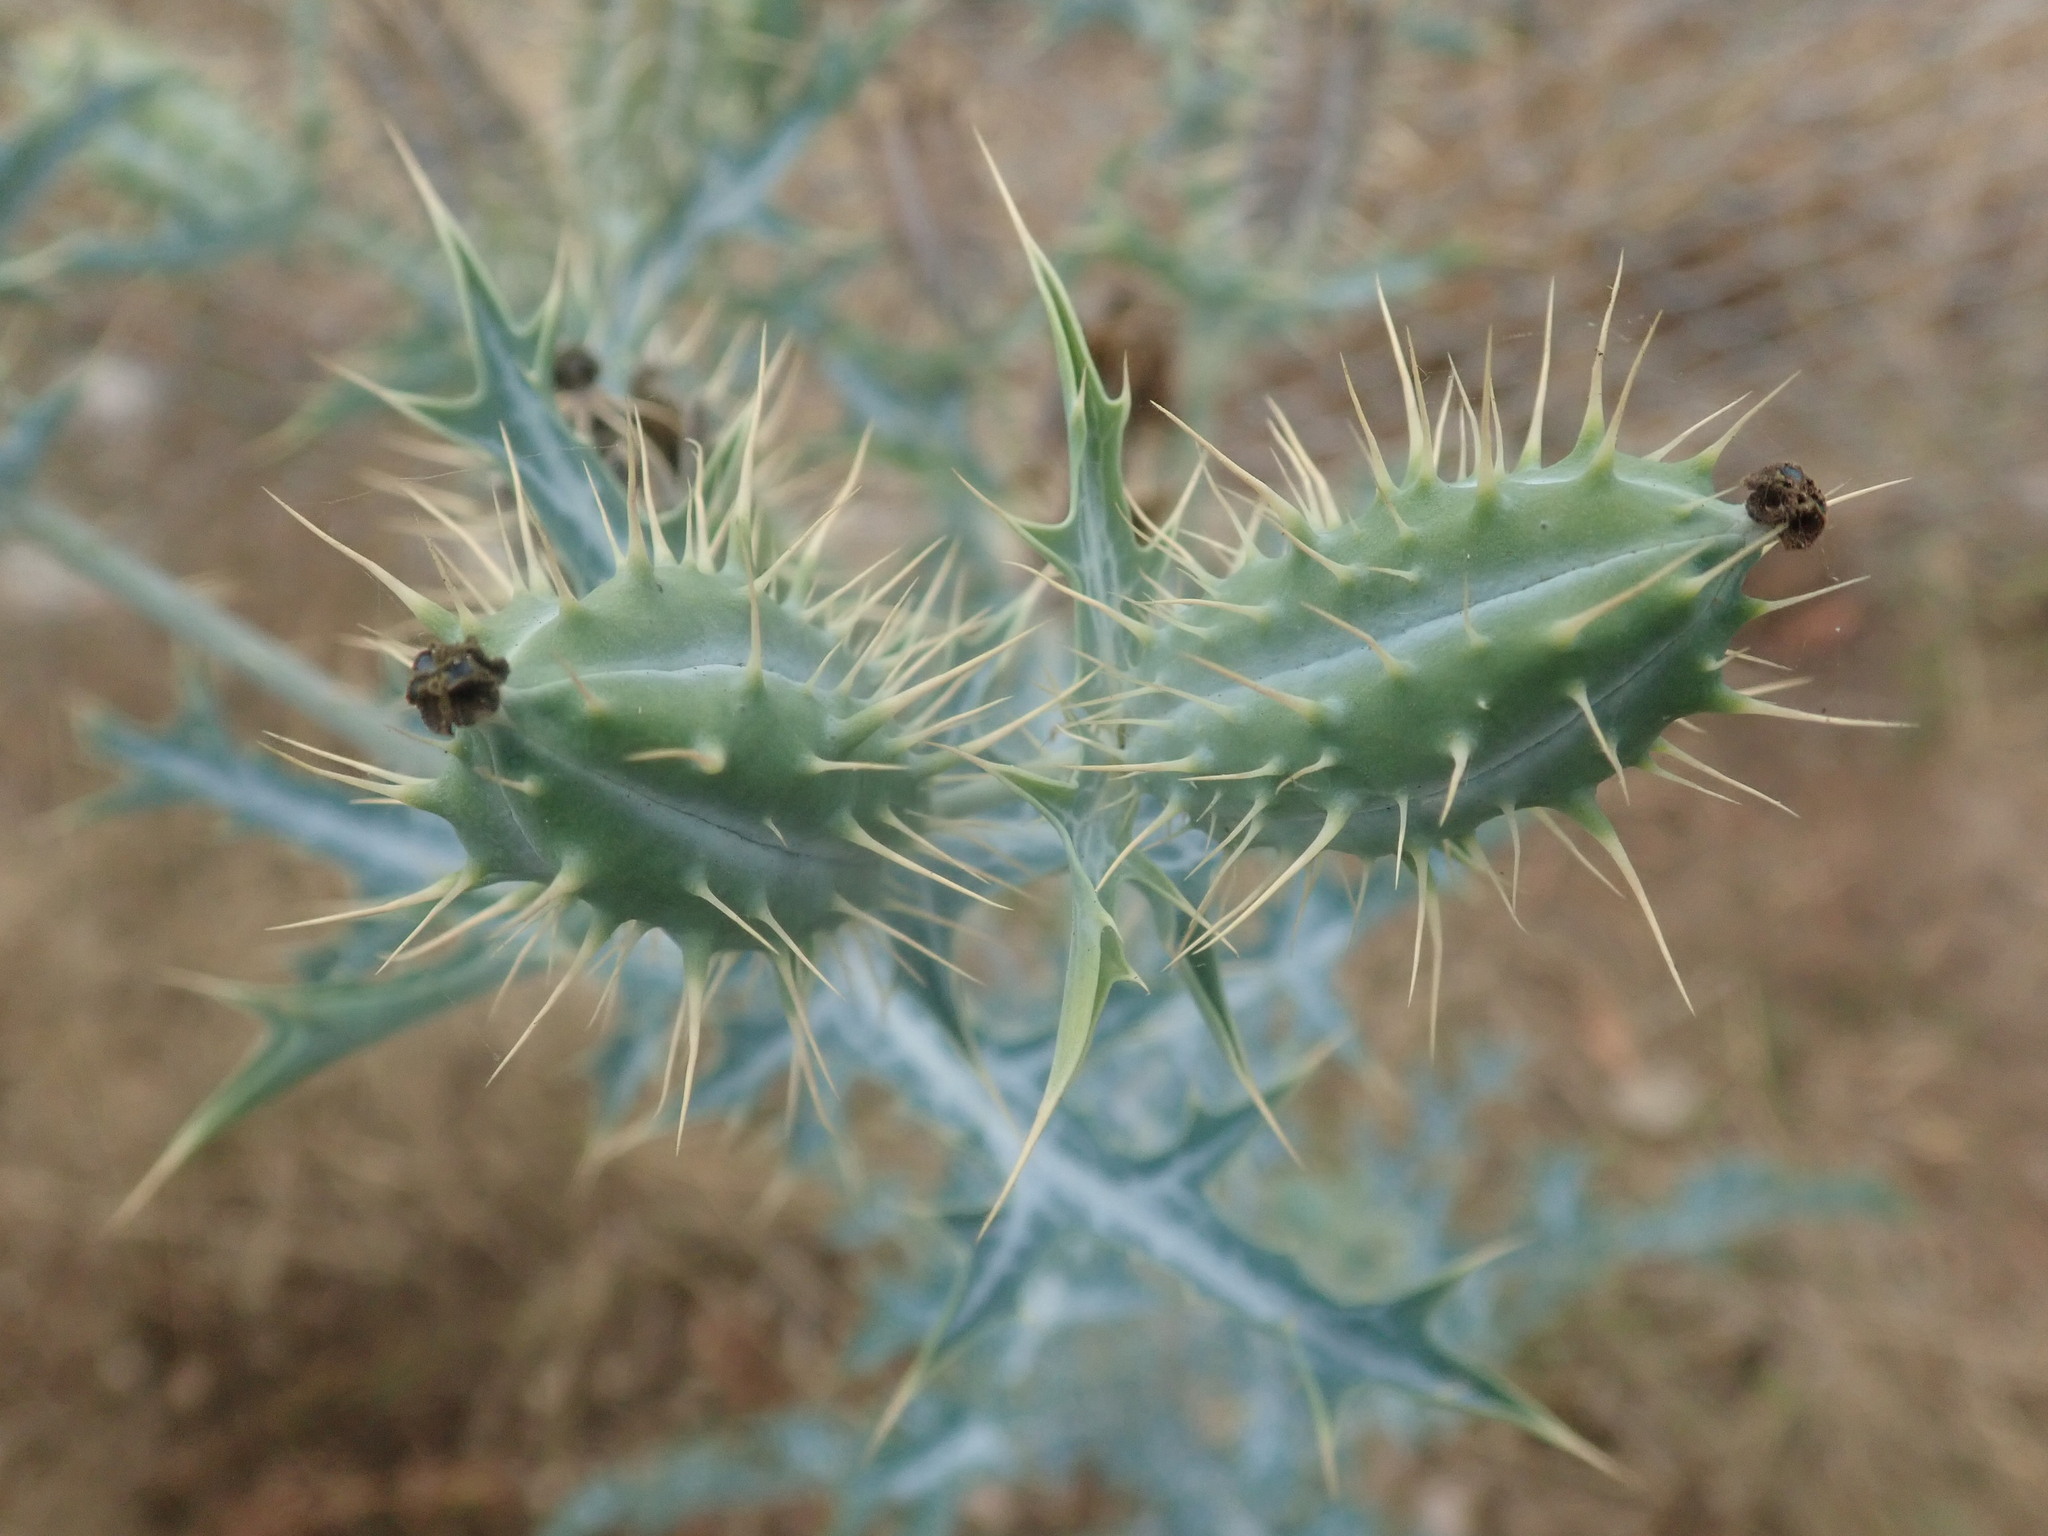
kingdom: Plantae
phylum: Tracheophyta
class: Magnoliopsida
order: Ranunculales
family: Papaveraceae
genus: Argemone
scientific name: Argemone mexicana
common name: Mexican poppy
